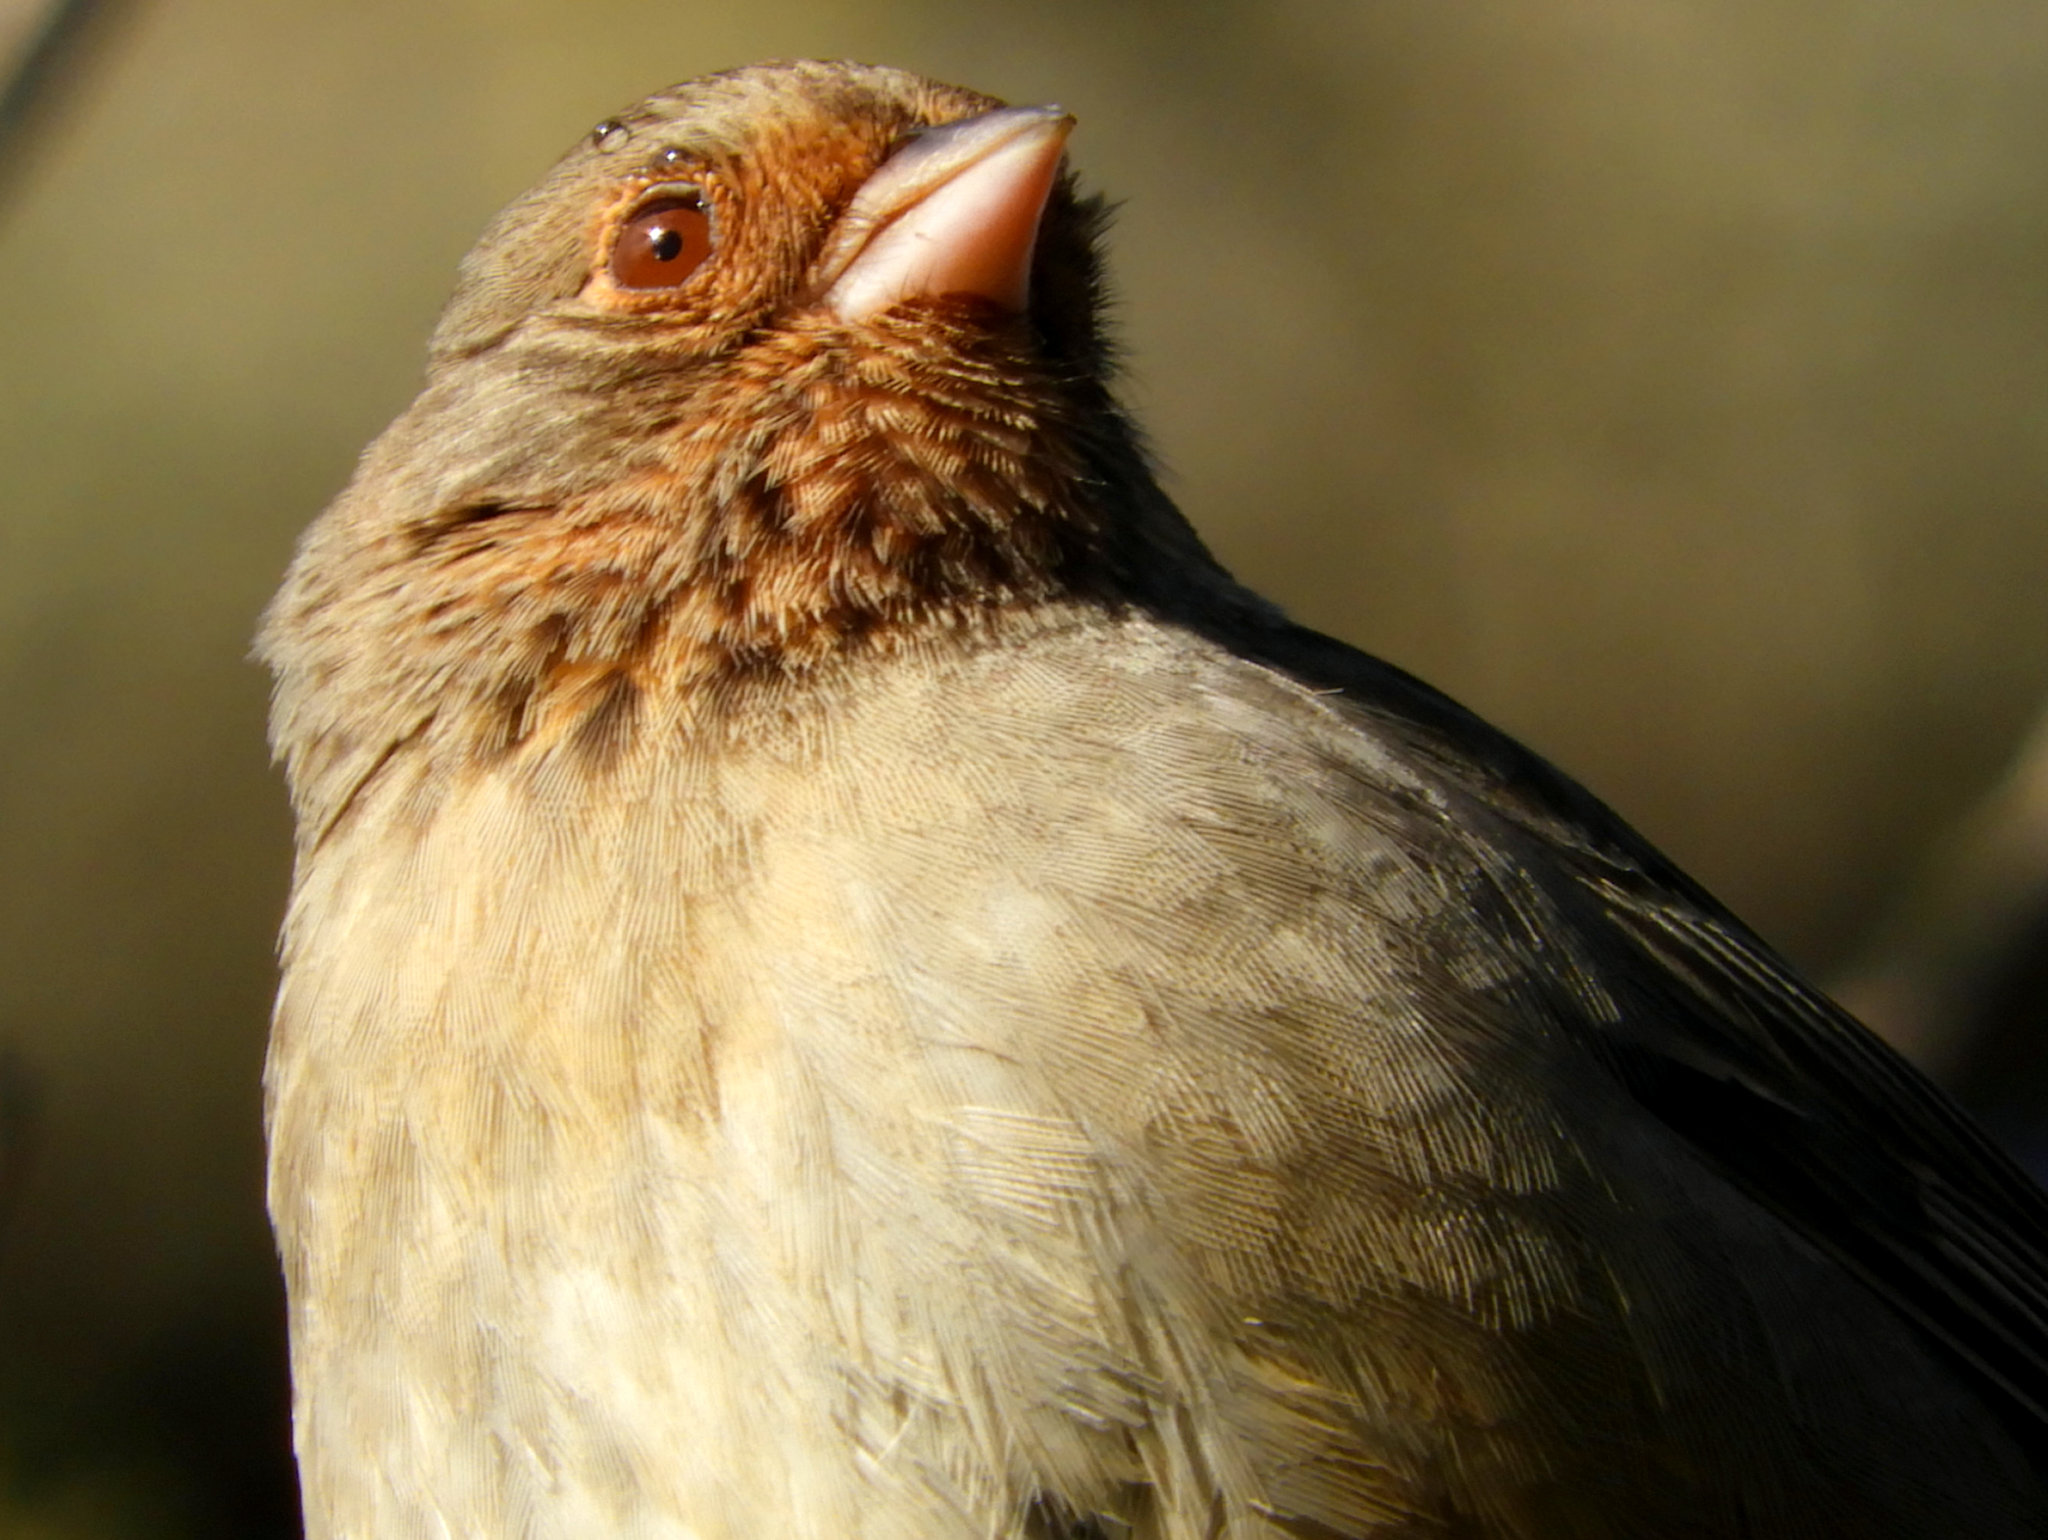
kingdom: Animalia
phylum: Chordata
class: Aves
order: Passeriformes
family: Passerellidae
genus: Melozone
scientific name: Melozone crissalis
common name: California towhee
